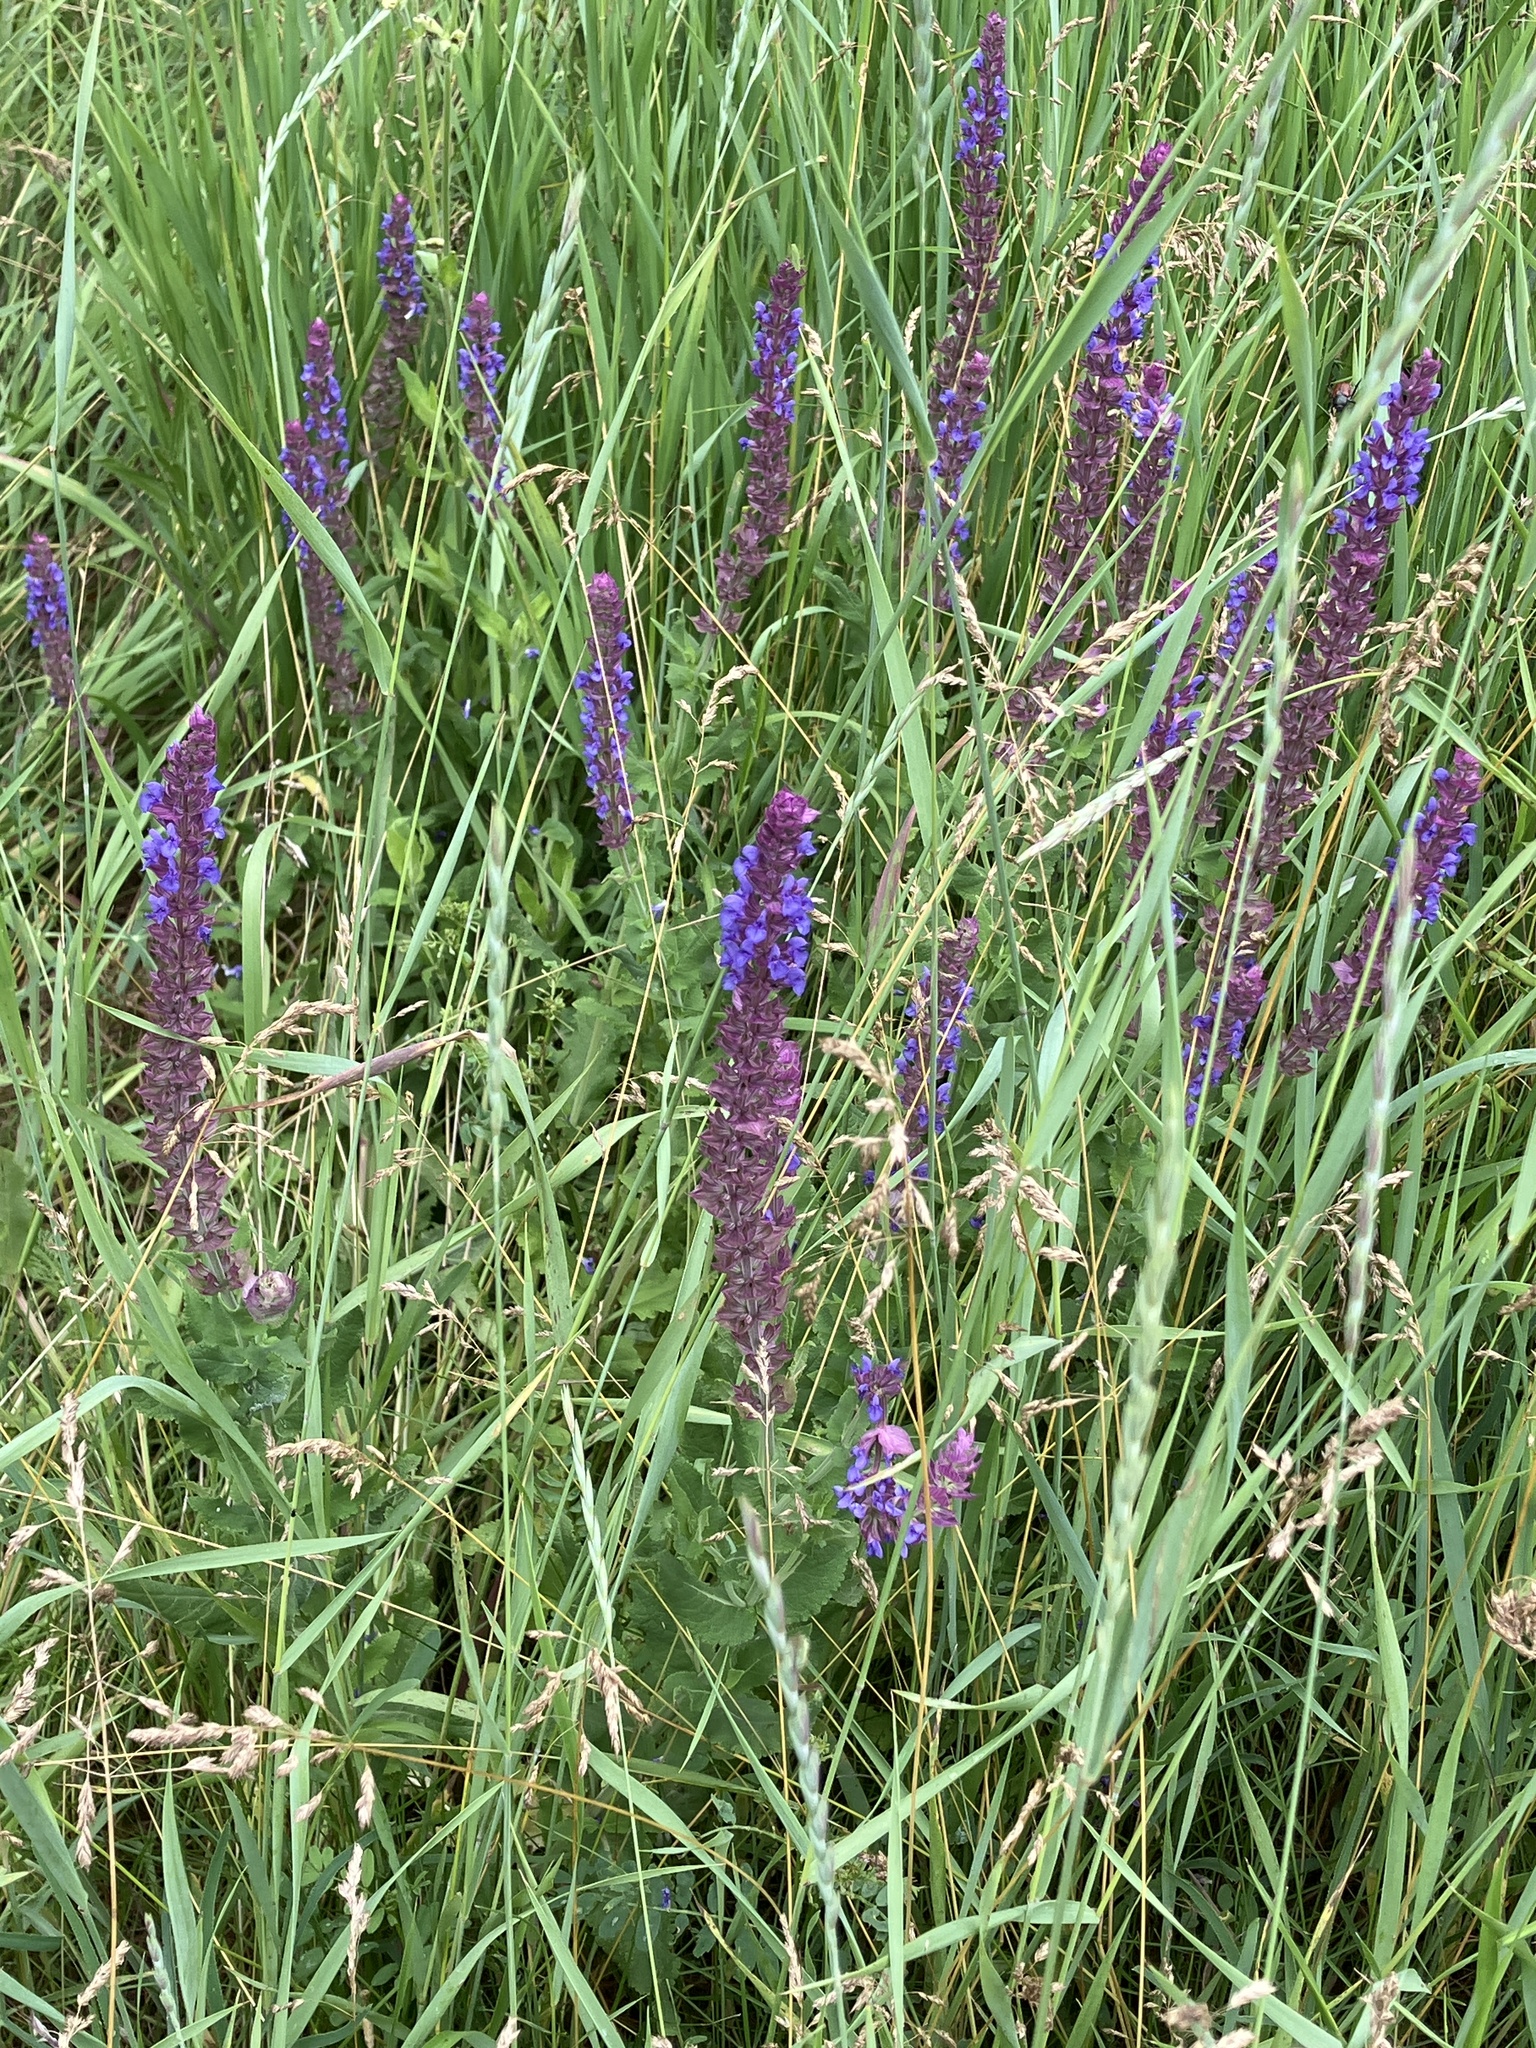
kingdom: Plantae
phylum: Tracheophyta
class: Magnoliopsida
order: Lamiales
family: Lamiaceae
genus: Salvia
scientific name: Salvia nemorosa
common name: Balkan clary
